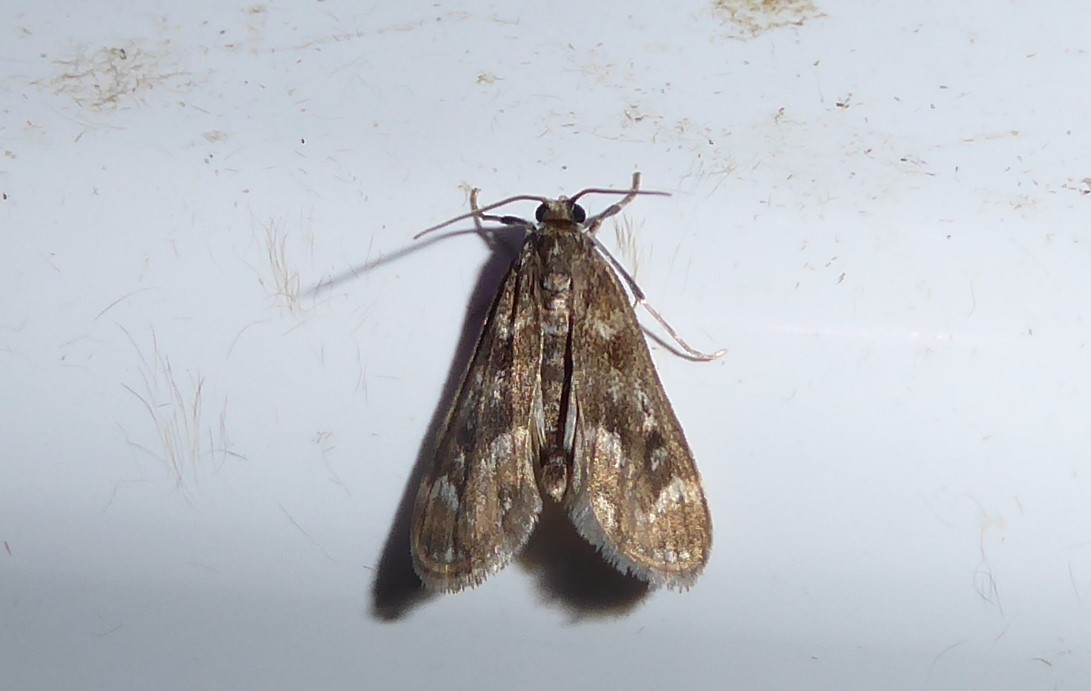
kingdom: Animalia
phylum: Arthropoda
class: Insecta
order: Lepidoptera
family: Crambidae
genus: Hygraula
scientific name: Hygraula nitens
